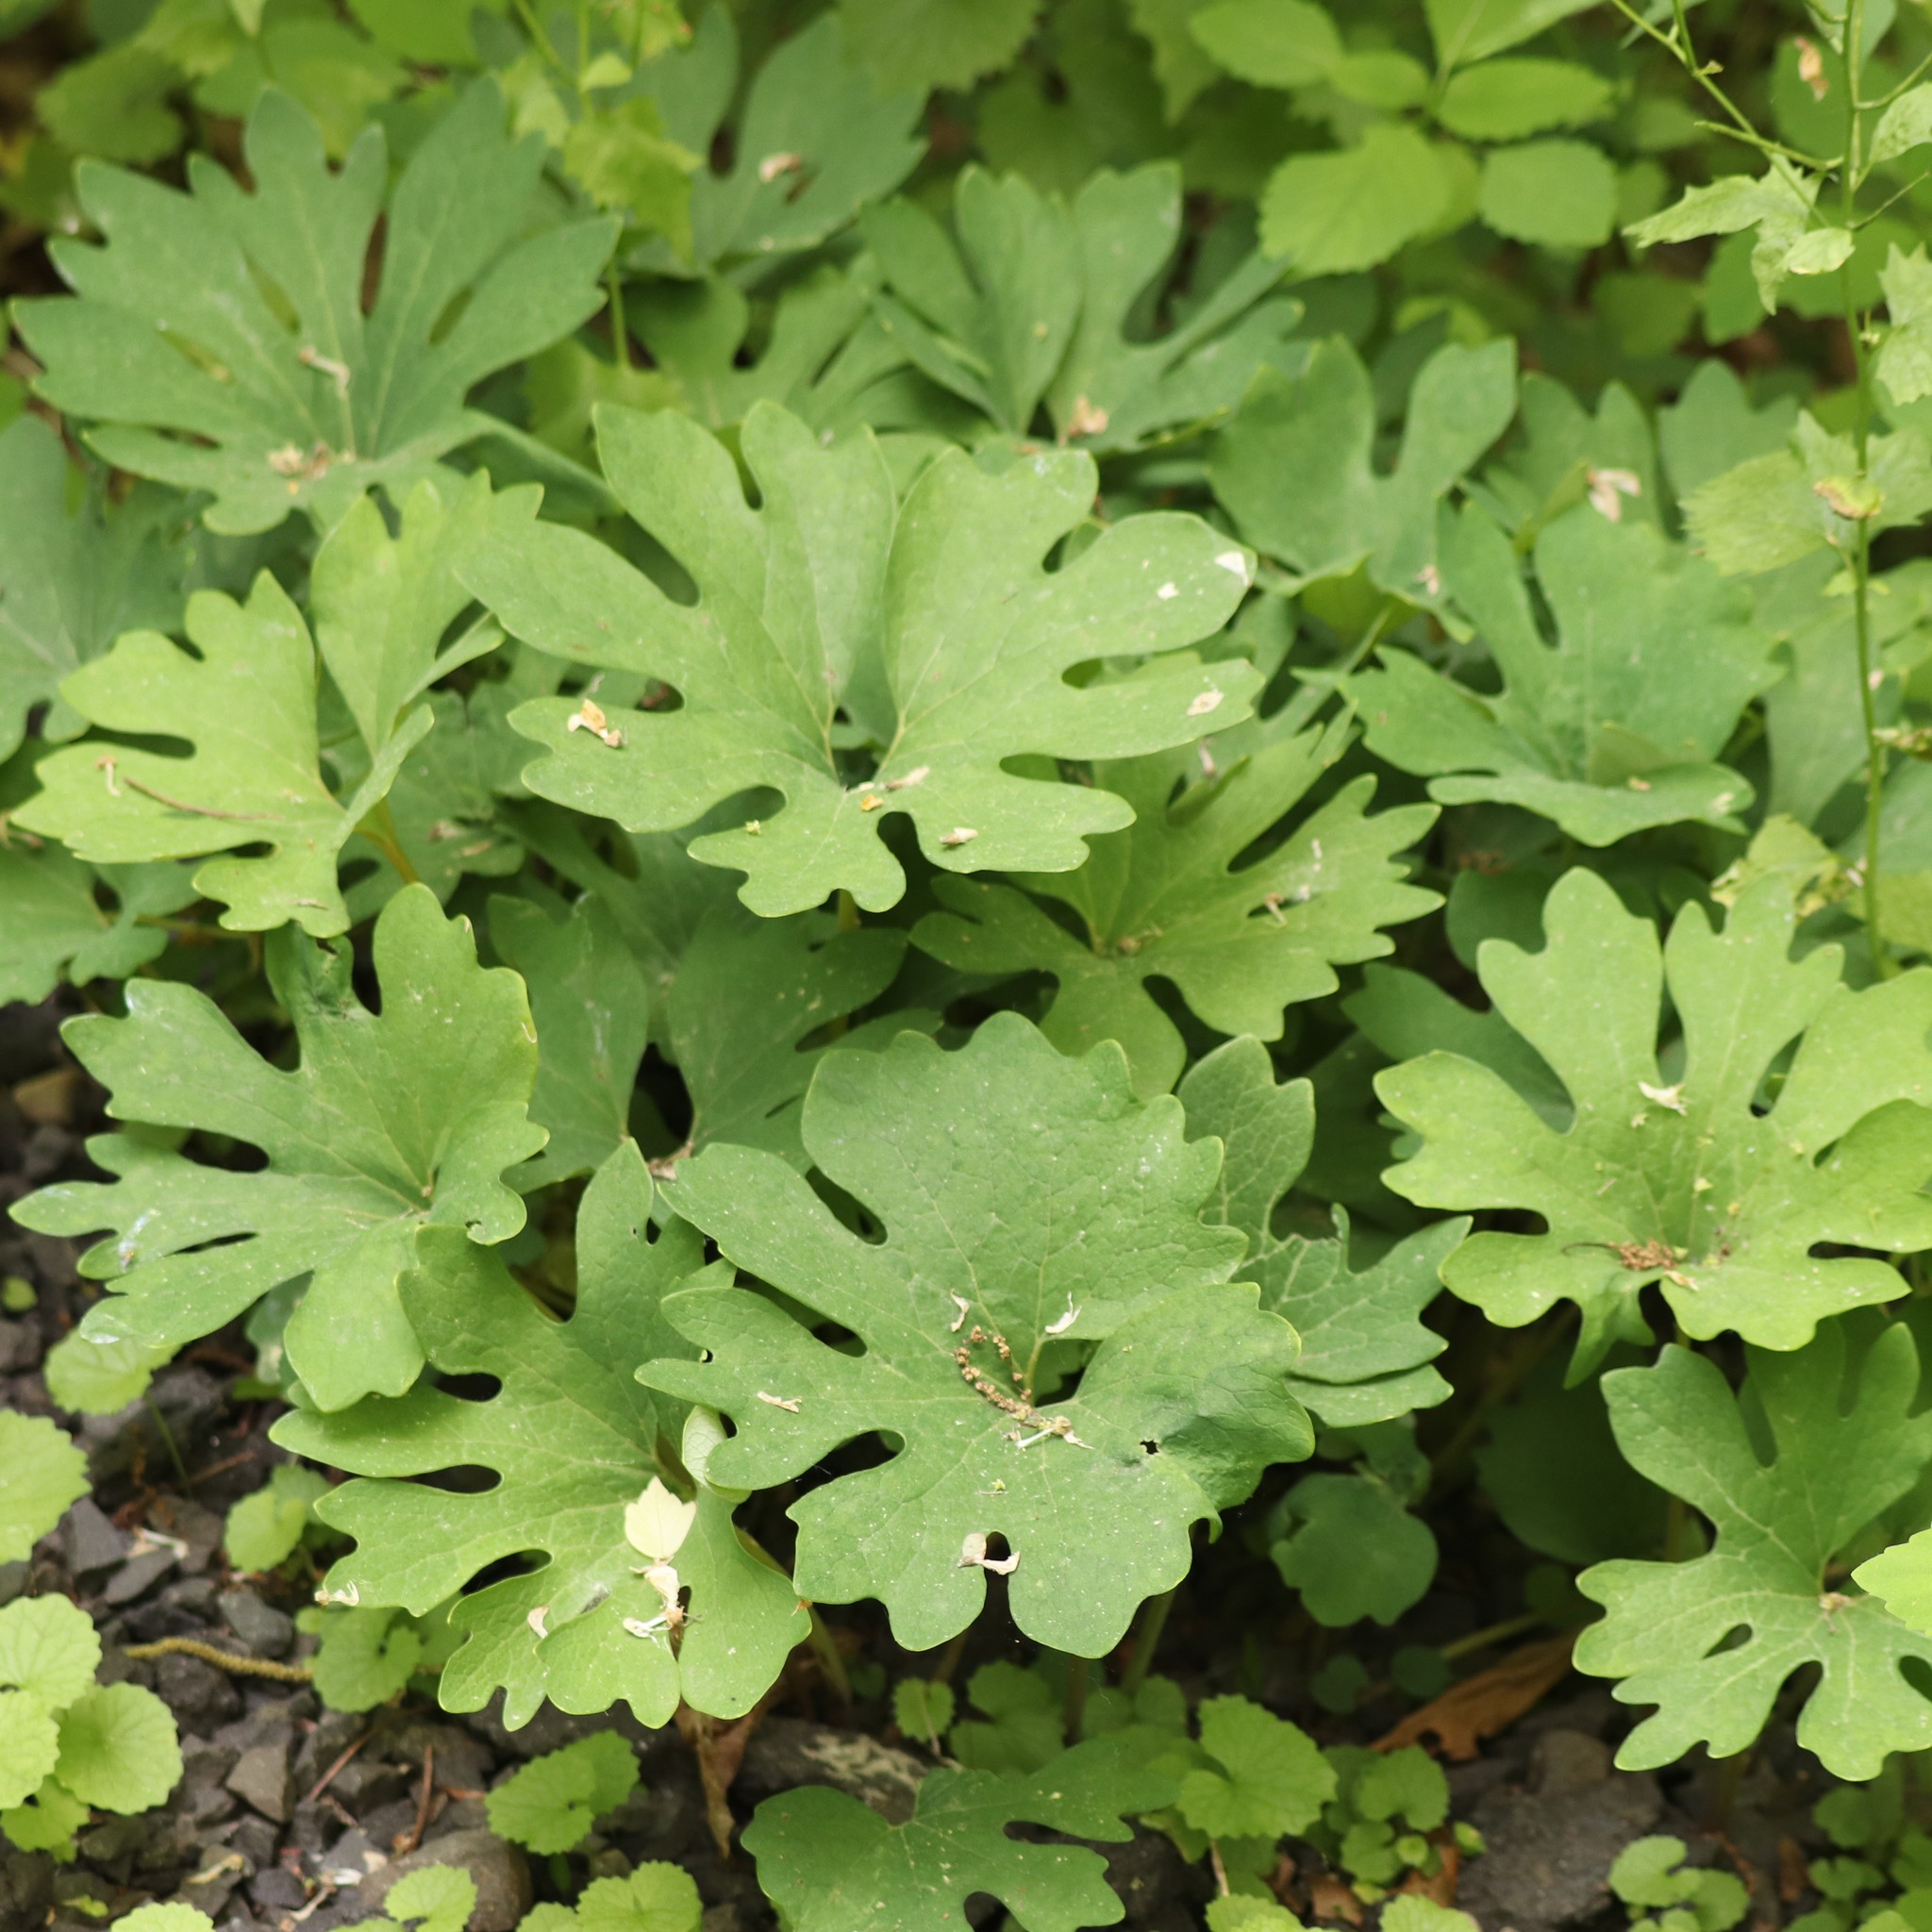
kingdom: Plantae
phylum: Tracheophyta
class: Magnoliopsida
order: Ranunculales
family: Papaveraceae
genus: Sanguinaria
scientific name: Sanguinaria canadensis
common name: Bloodroot
